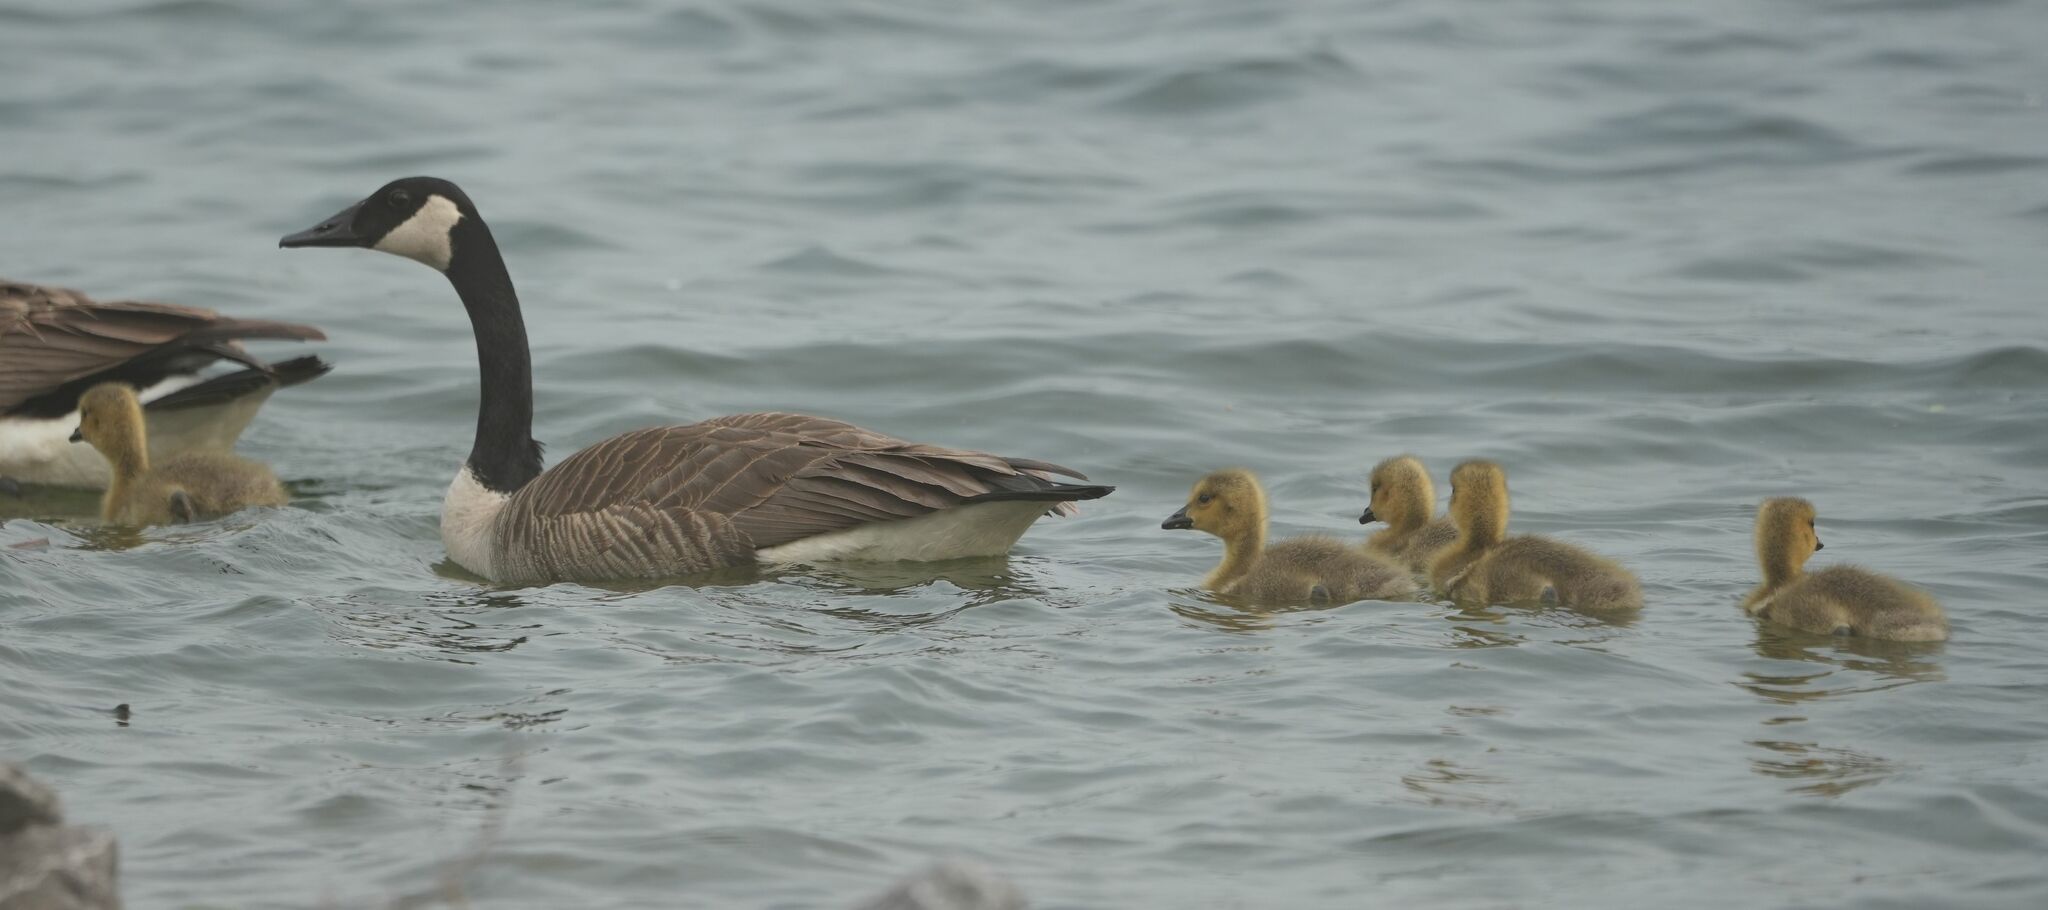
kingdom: Animalia
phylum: Chordata
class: Aves
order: Anseriformes
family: Anatidae
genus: Branta
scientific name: Branta canadensis
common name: Canada goose
